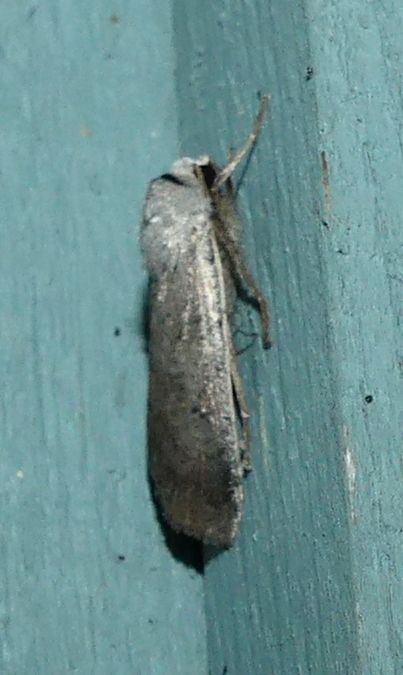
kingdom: Animalia
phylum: Arthropoda
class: Insecta
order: Lepidoptera
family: Noctuidae
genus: Anicla
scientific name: Anicla illapsa
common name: Snowy dart
